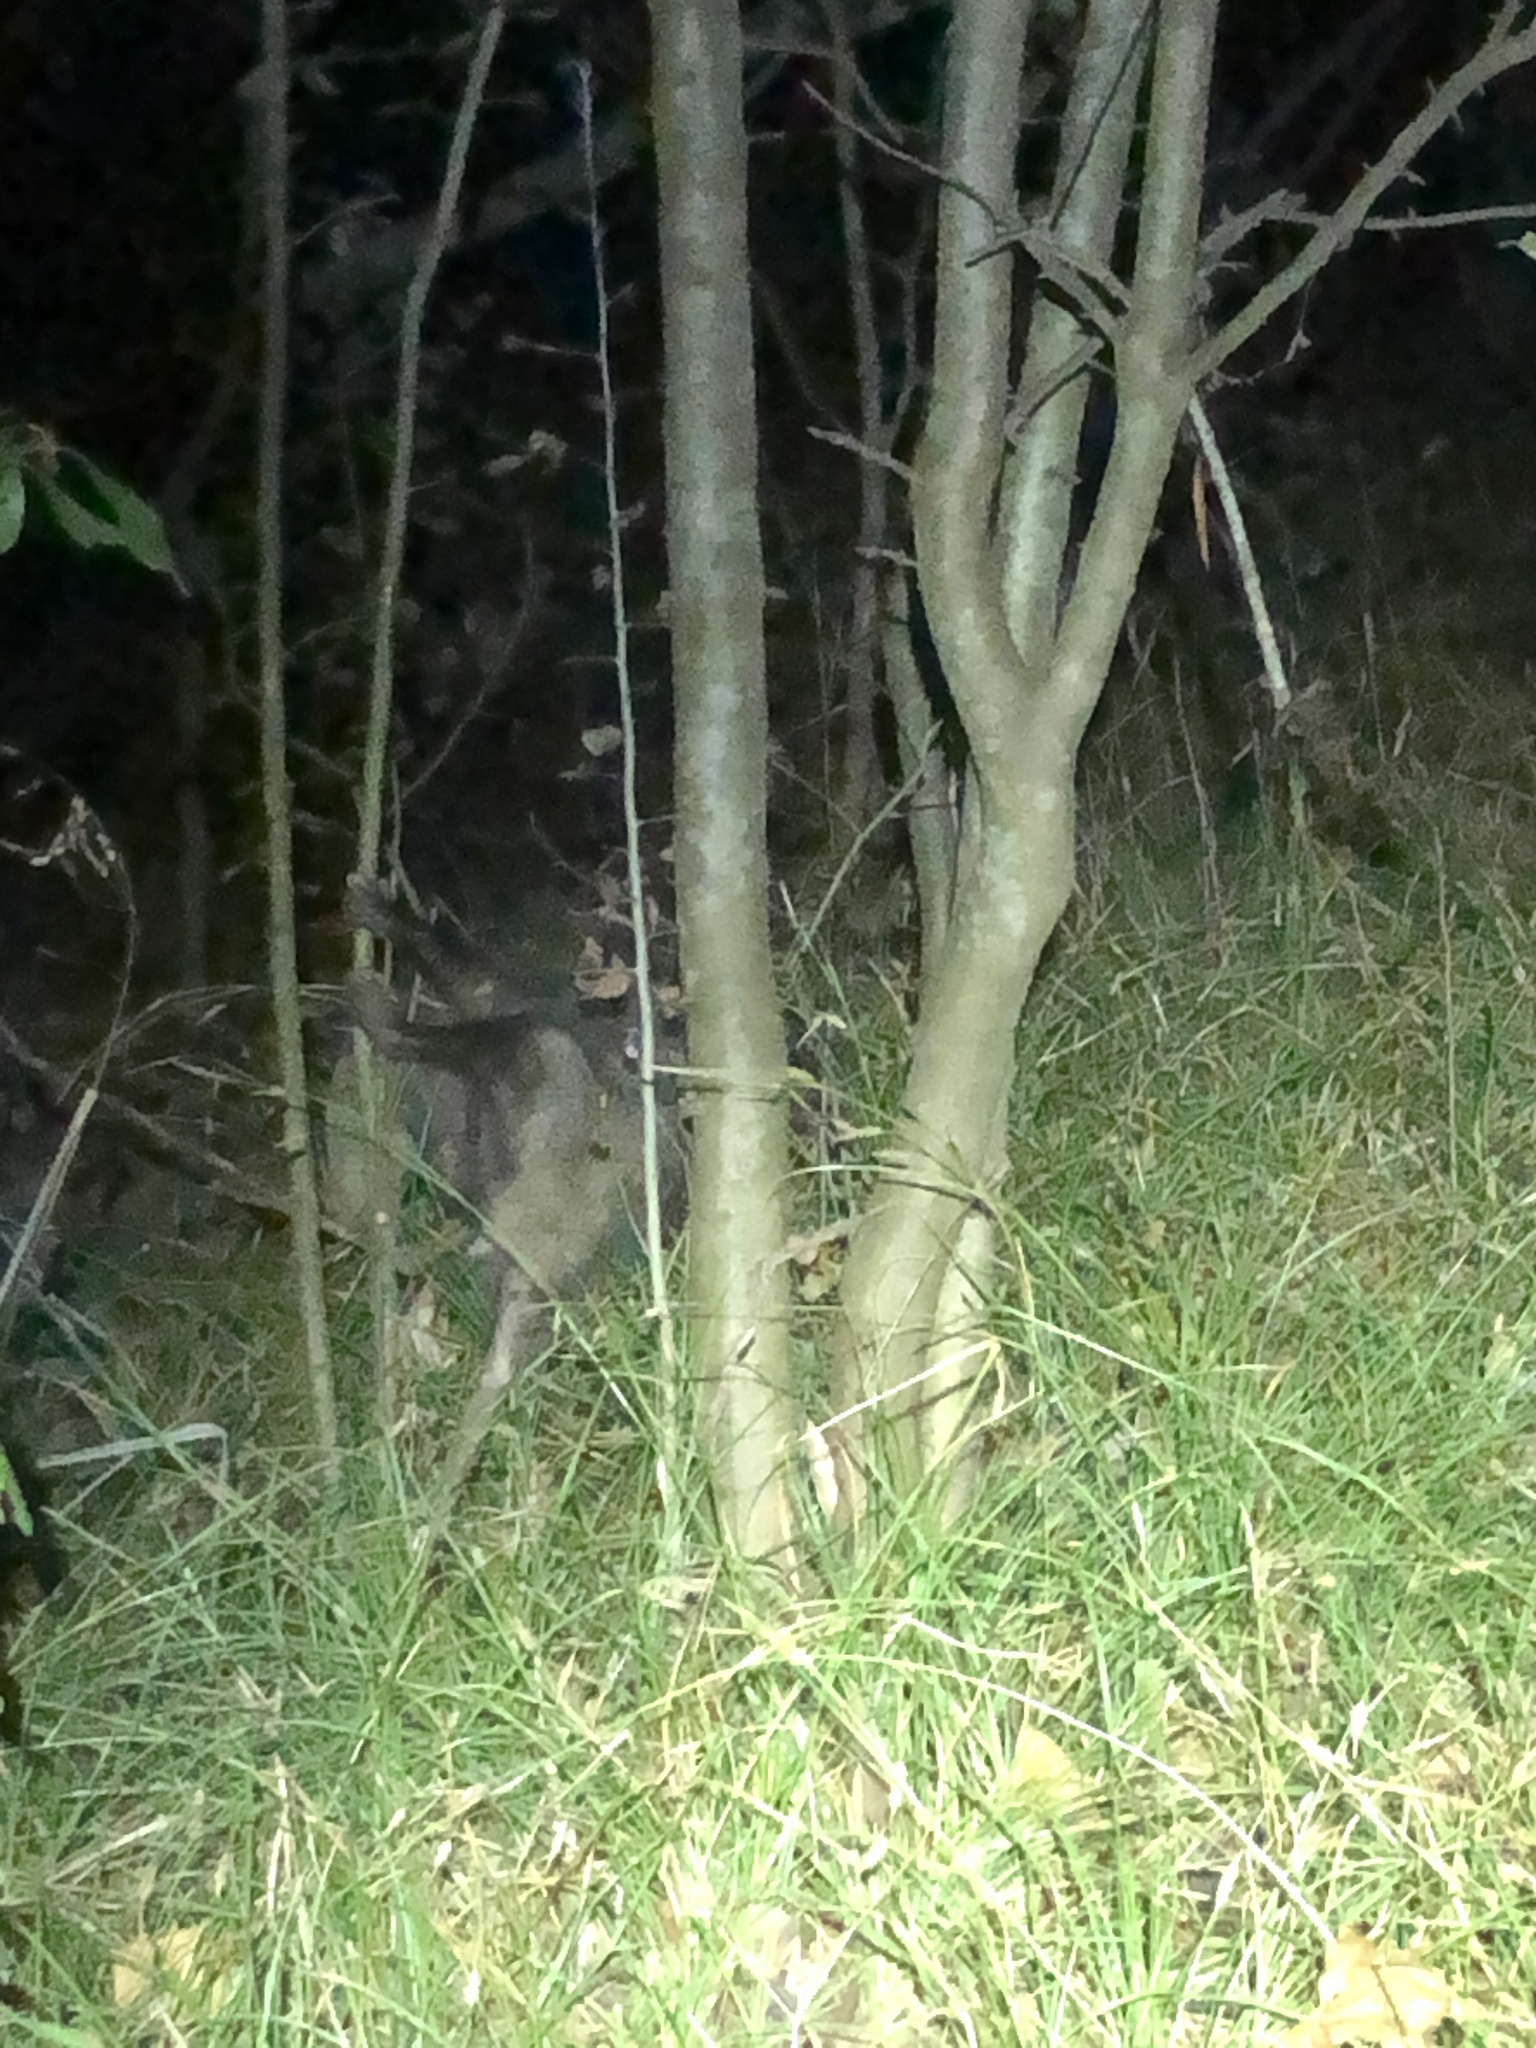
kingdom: Animalia
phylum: Chordata
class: Mammalia
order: Didelphimorphia
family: Didelphidae
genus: Didelphis
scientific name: Didelphis virginiana
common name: Virginia opossum
